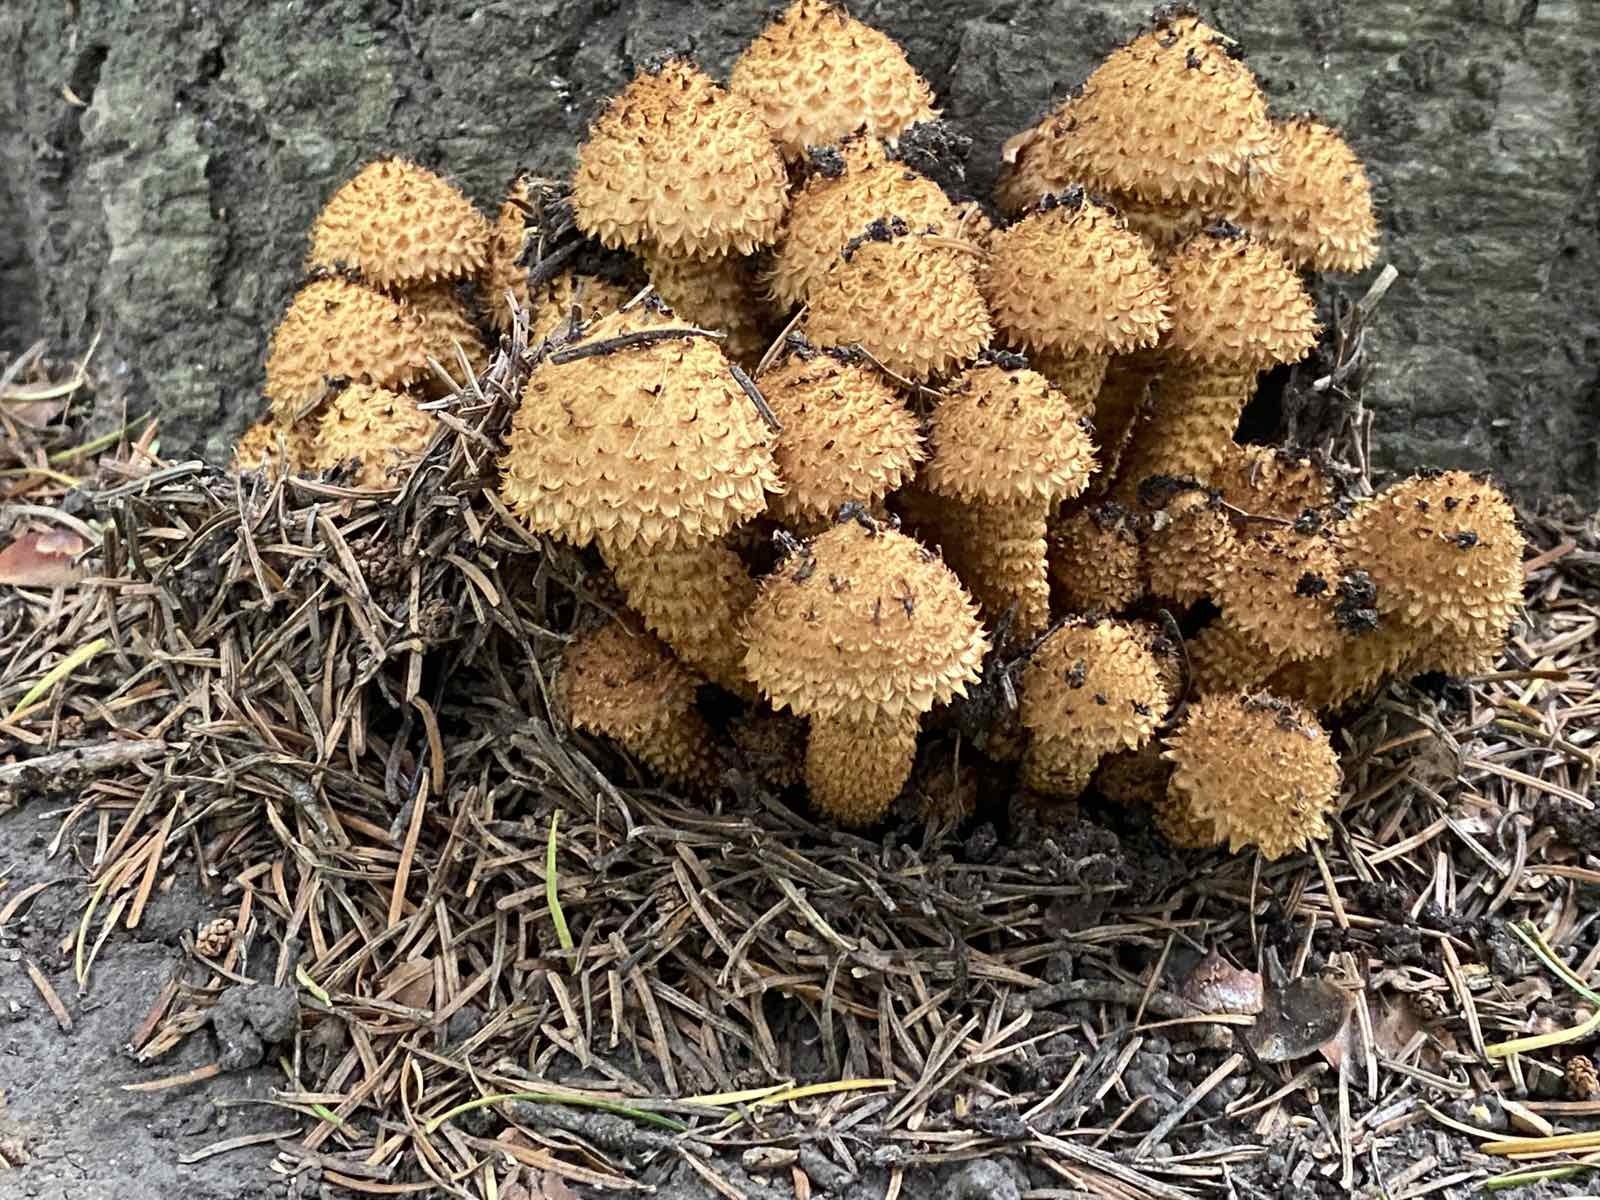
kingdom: Fungi
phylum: Basidiomycota
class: Agaricomycetes
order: Agaricales
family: Strophariaceae
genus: Pholiota
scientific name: Pholiota squarrosa
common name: Shaggy pholiota
